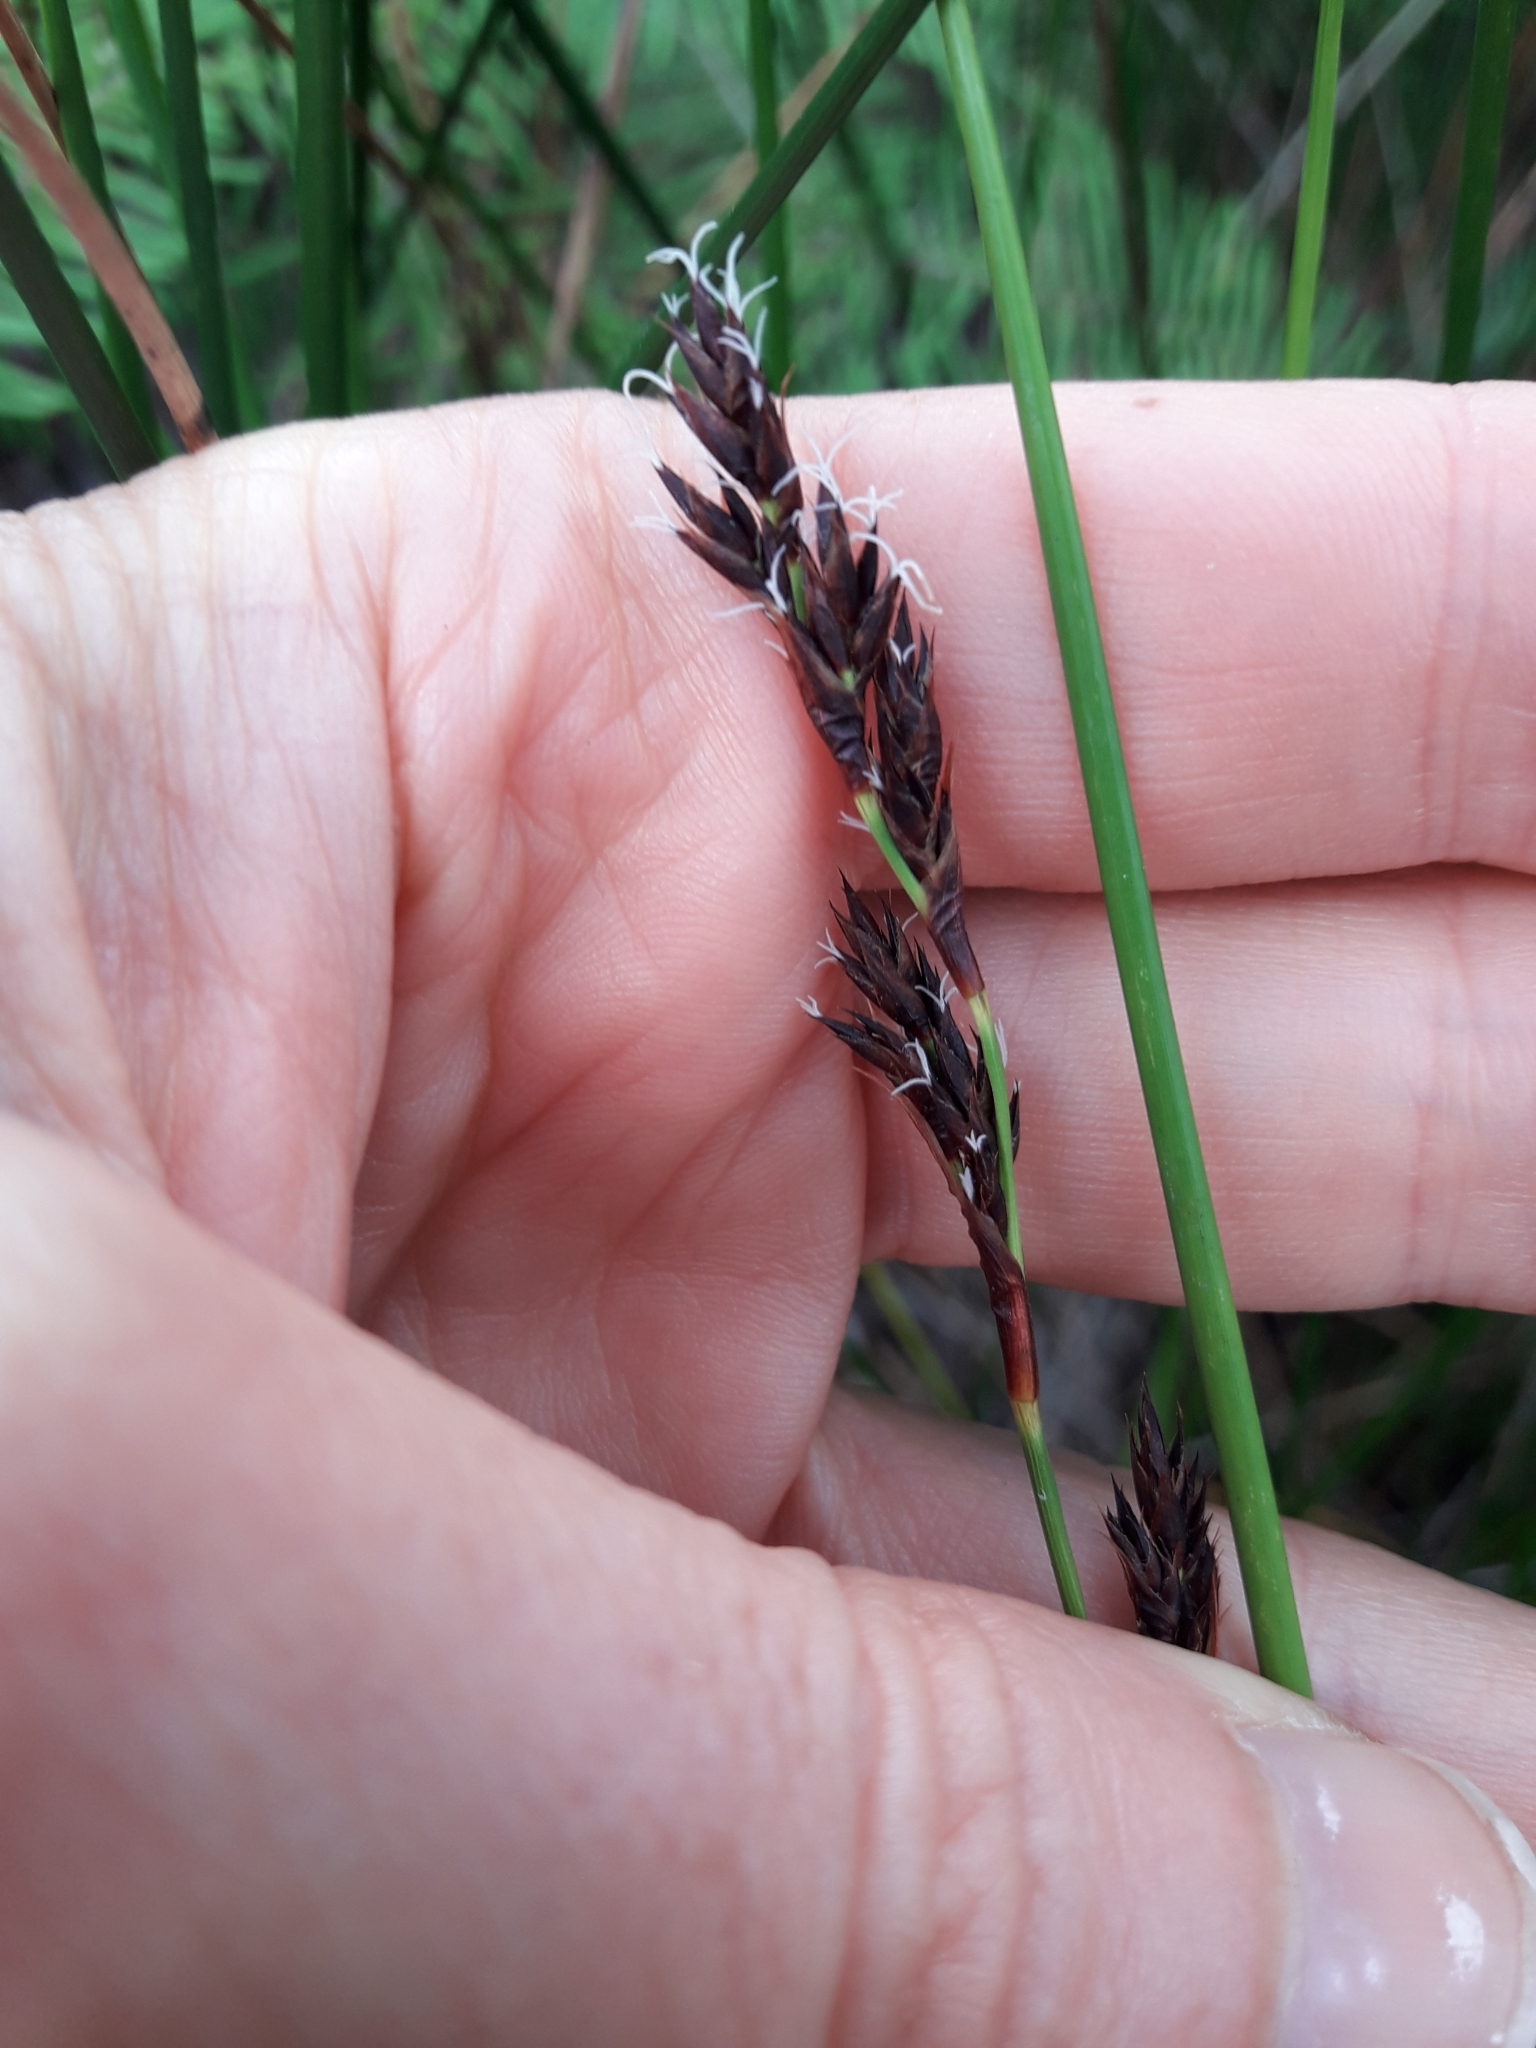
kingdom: Plantae
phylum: Tracheophyta
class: Liliopsida
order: Poales
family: Cyperaceae
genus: Machaerina
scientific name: Machaerina rubiginosa
